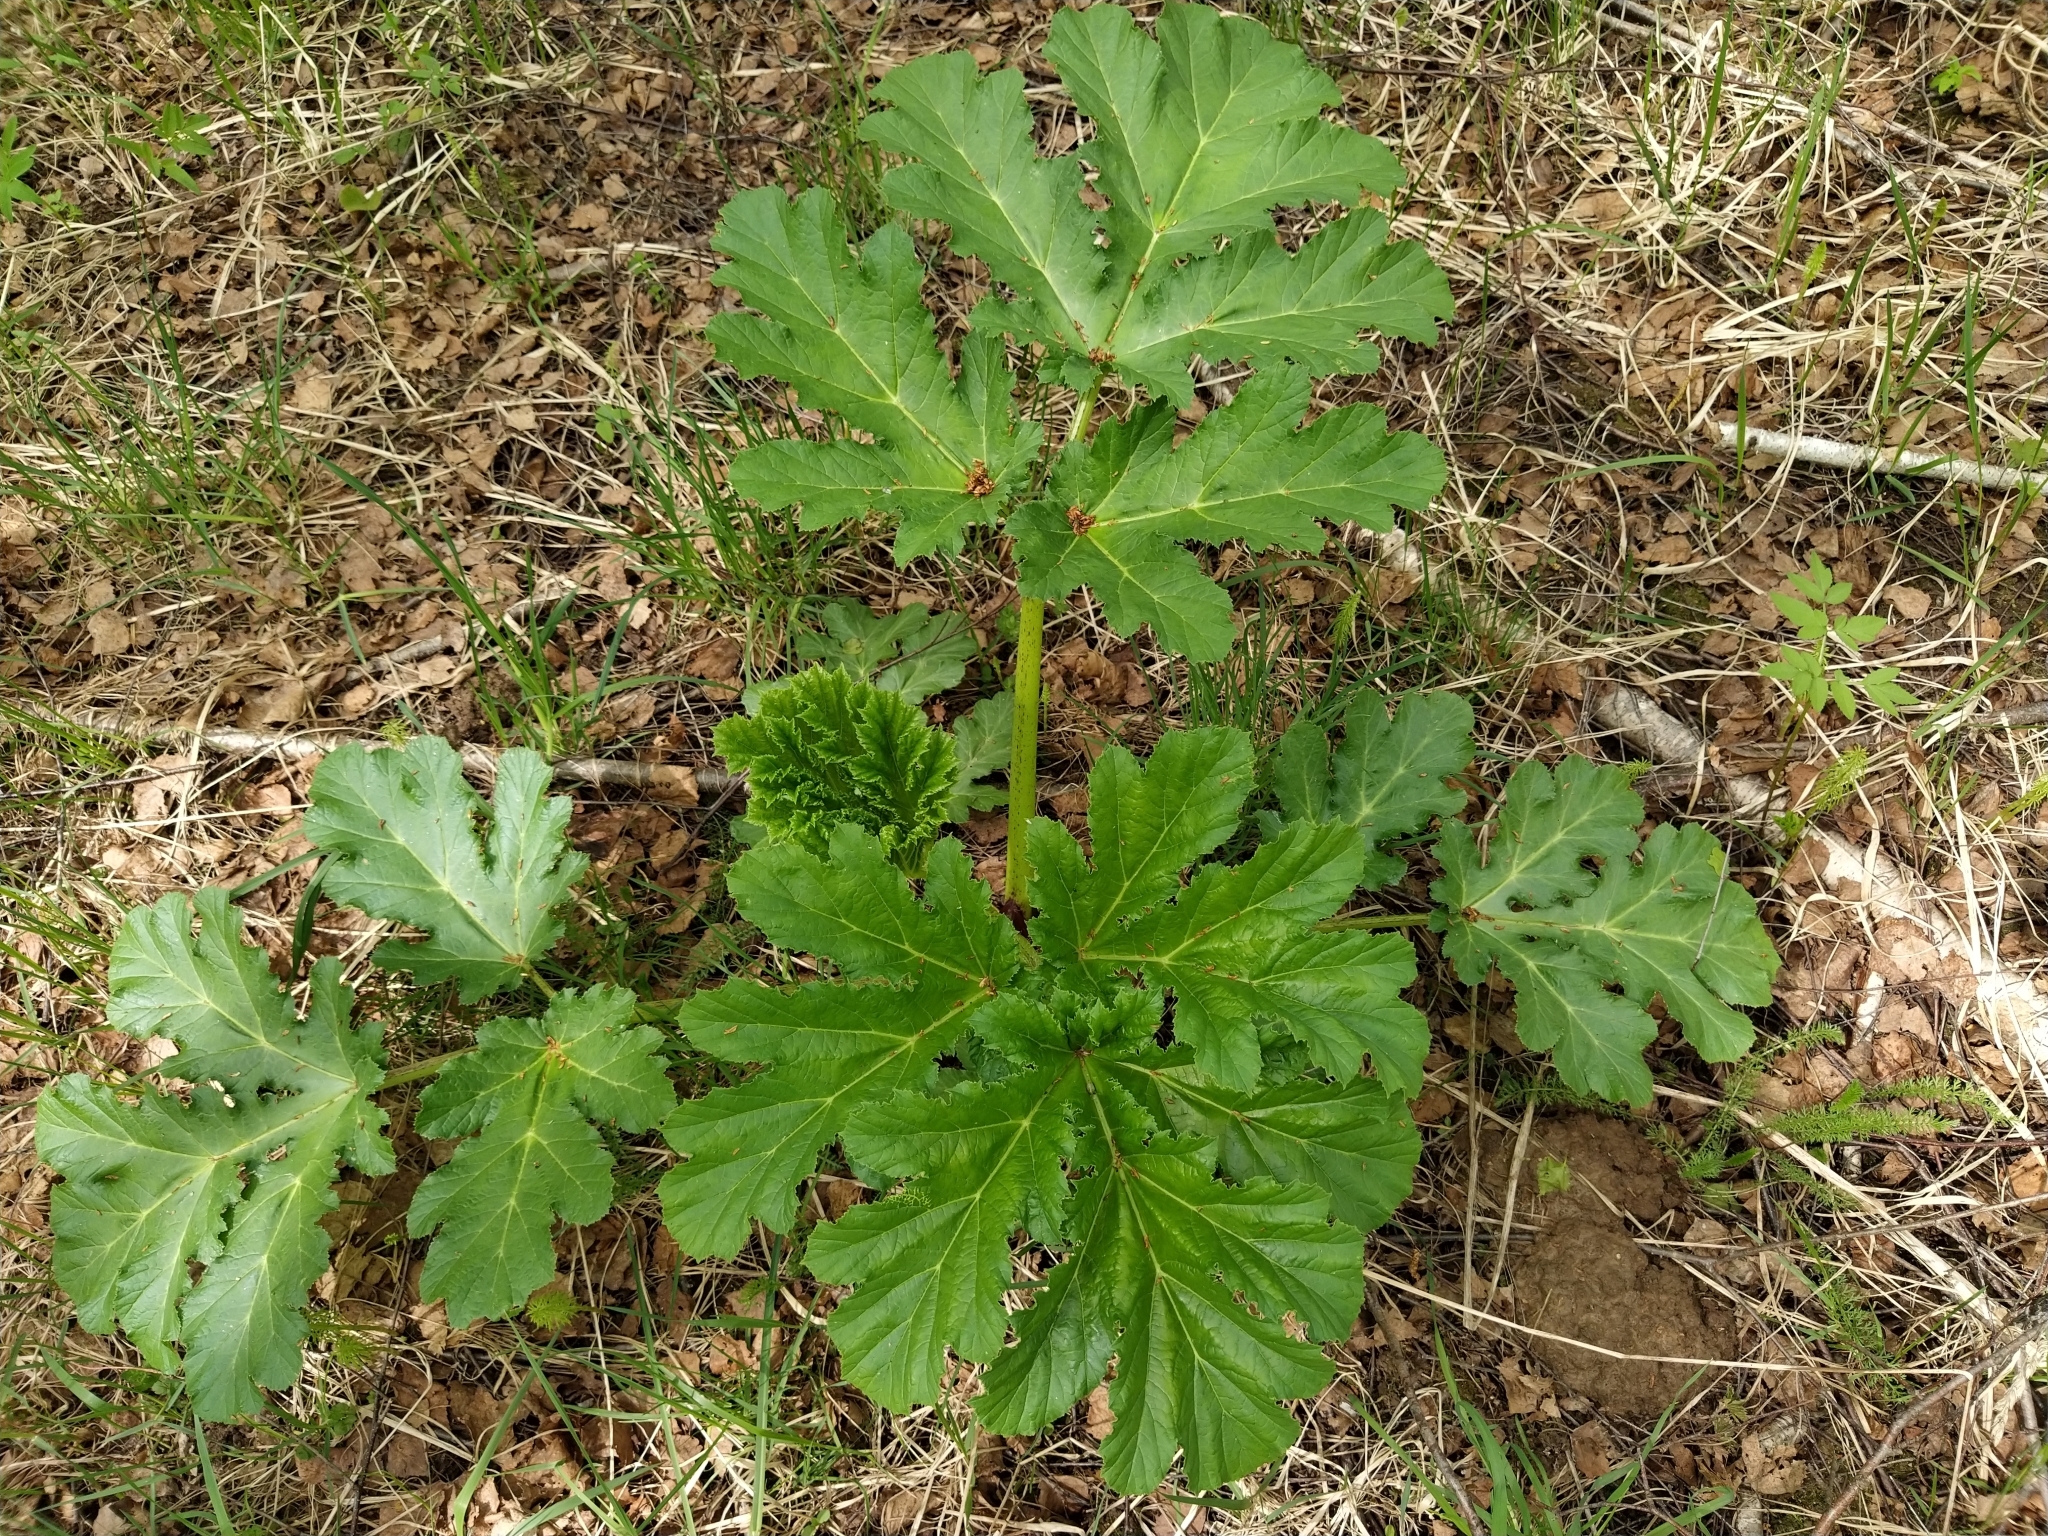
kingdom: Plantae
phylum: Tracheophyta
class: Magnoliopsida
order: Apiales
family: Apiaceae
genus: Heracleum
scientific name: Heracleum sosnowskyi
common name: Sosnowsky's hogweed
